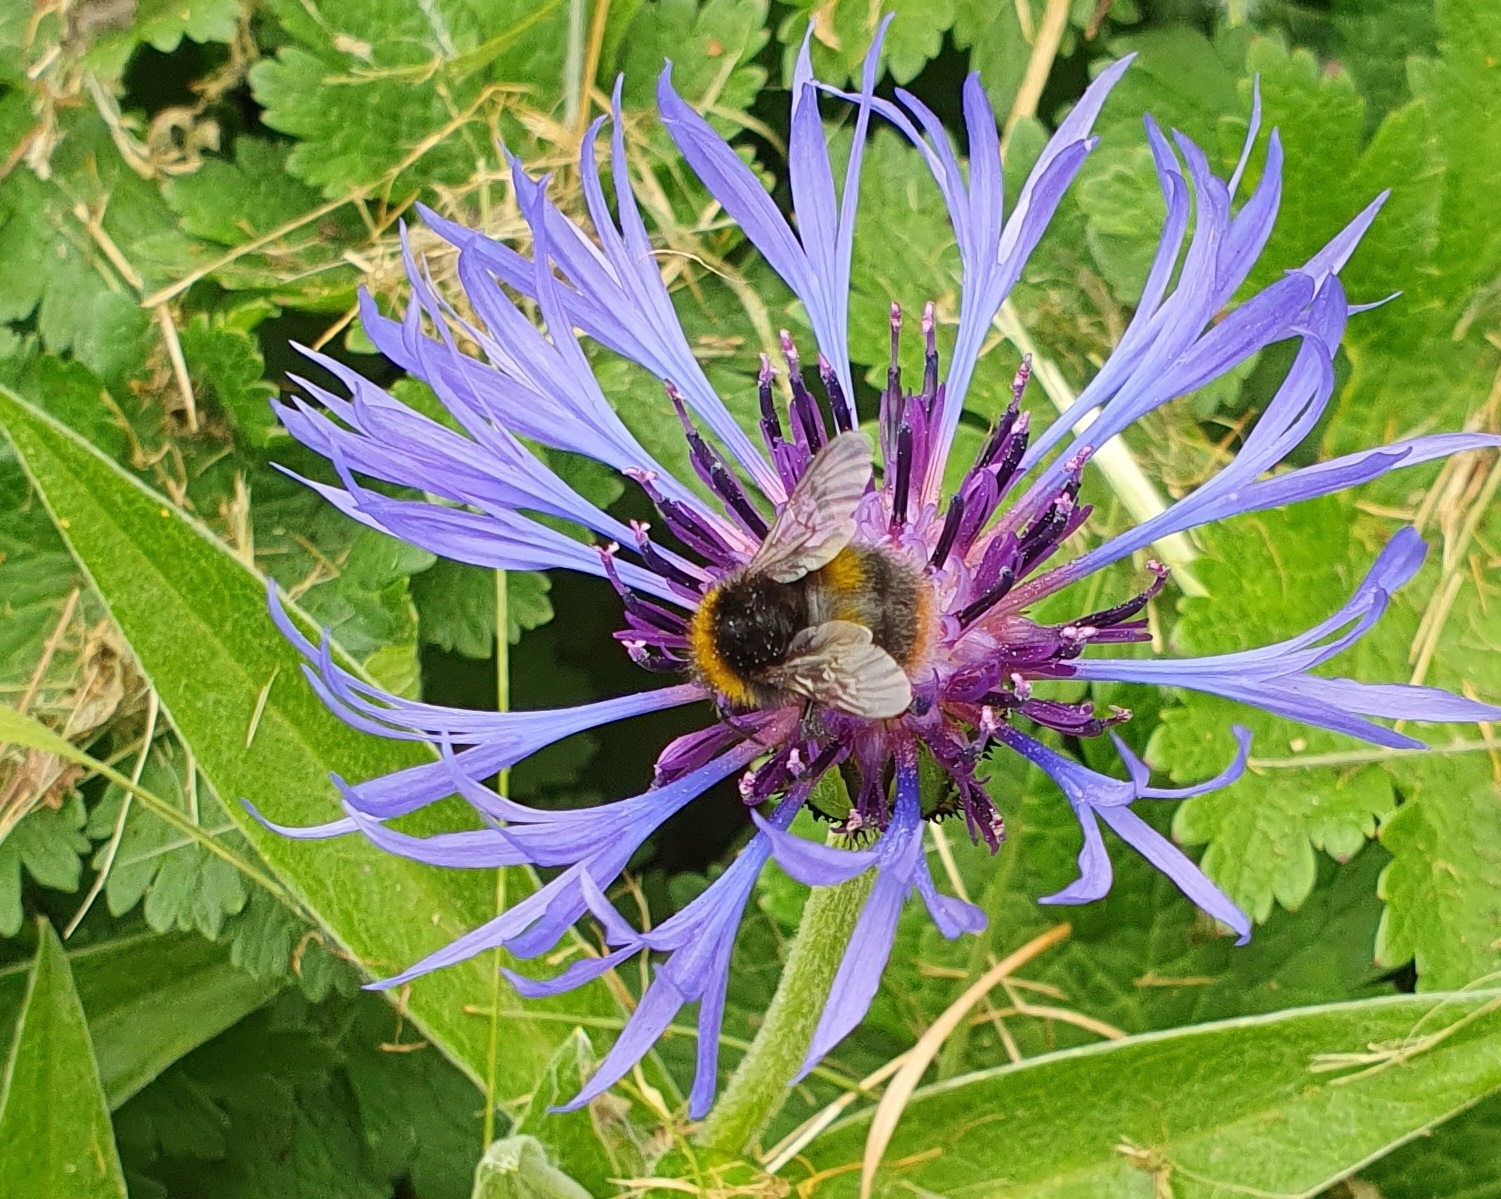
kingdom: Animalia
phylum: Arthropoda
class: Insecta
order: Hymenoptera
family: Apidae
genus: Bombus
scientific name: Bombus pratorum
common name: Early humble-bee
